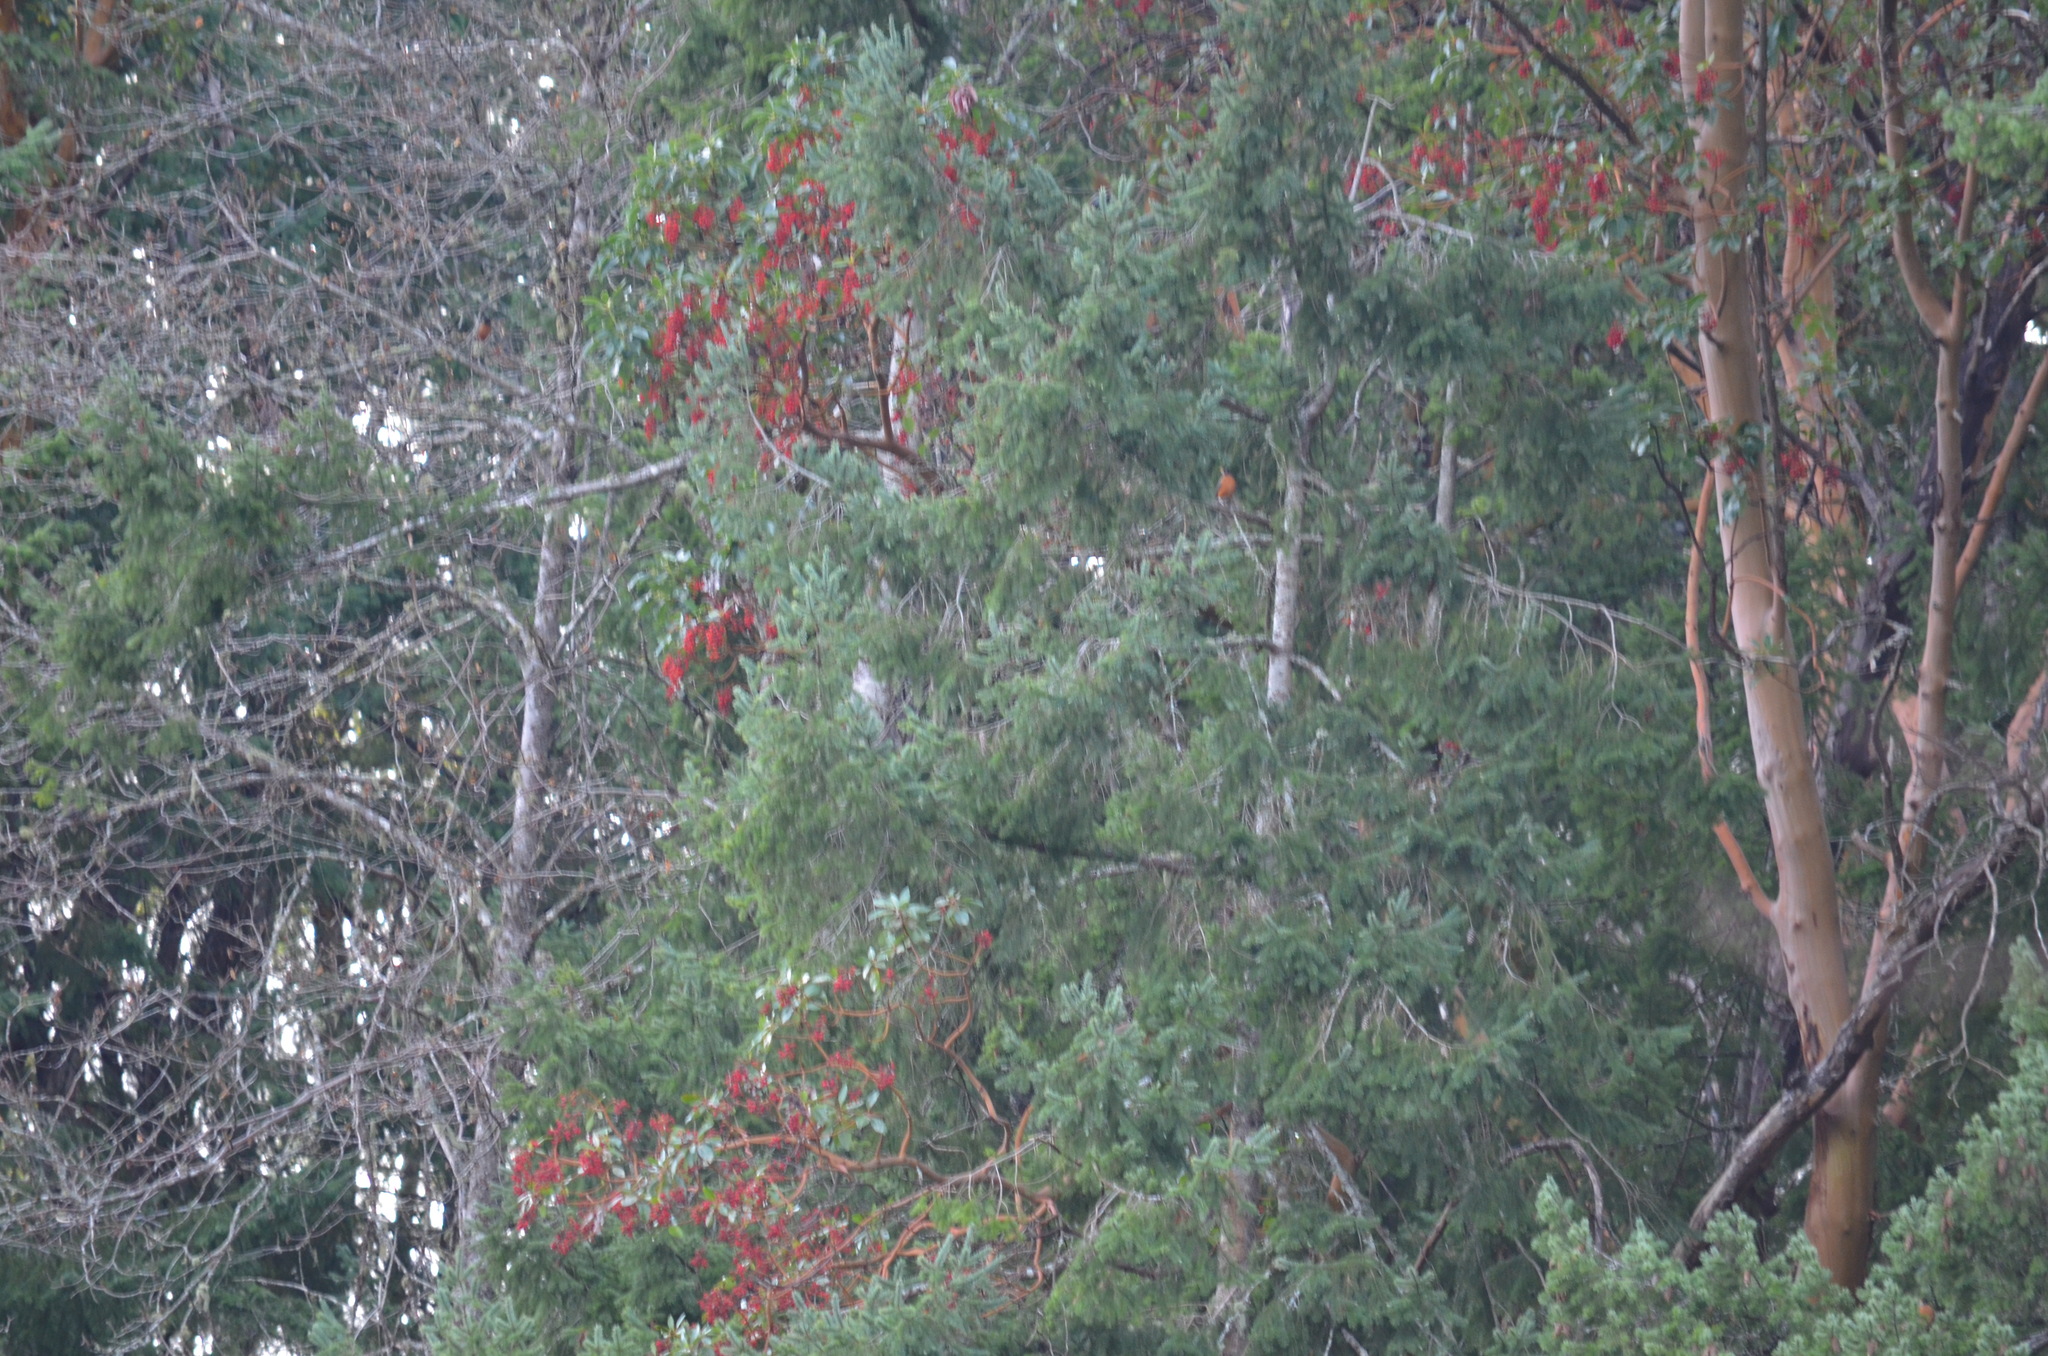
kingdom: Animalia
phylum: Chordata
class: Aves
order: Passeriformes
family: Turdidae
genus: Turdus
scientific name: Turdus migratorius
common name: American robin
